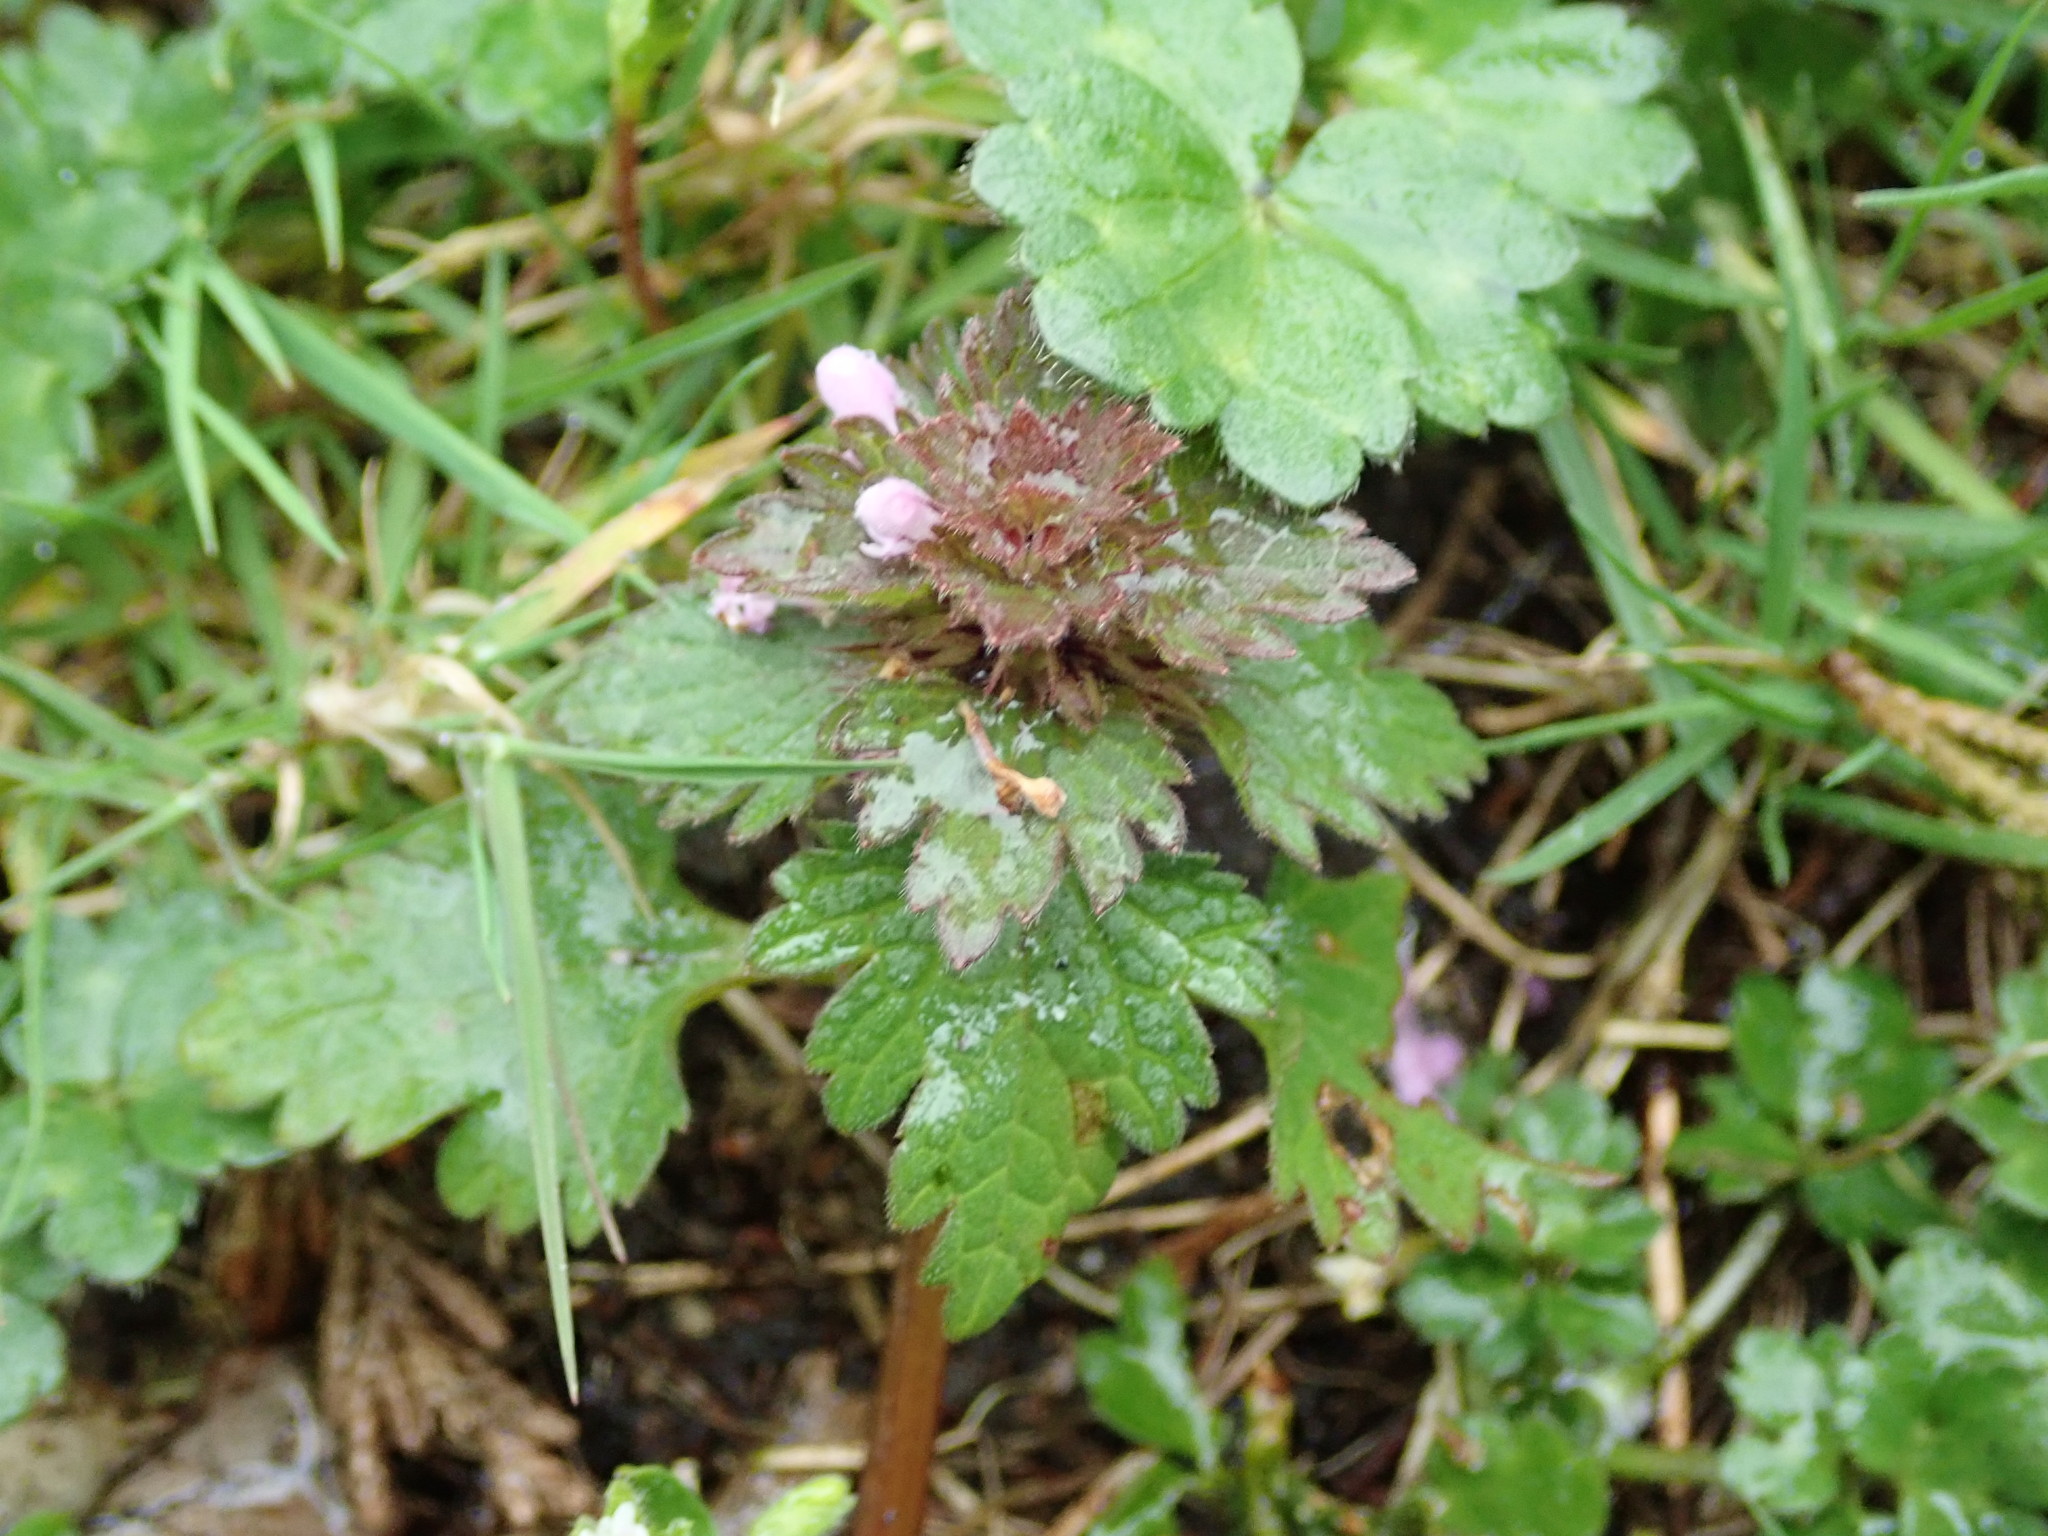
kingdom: Plantae
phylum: Tracheophyta
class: Magnoliopsida
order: Lamiales
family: Lamiaceae
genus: Lamium
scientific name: Lamium hybridum
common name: Cut-leaved dead-nettle
